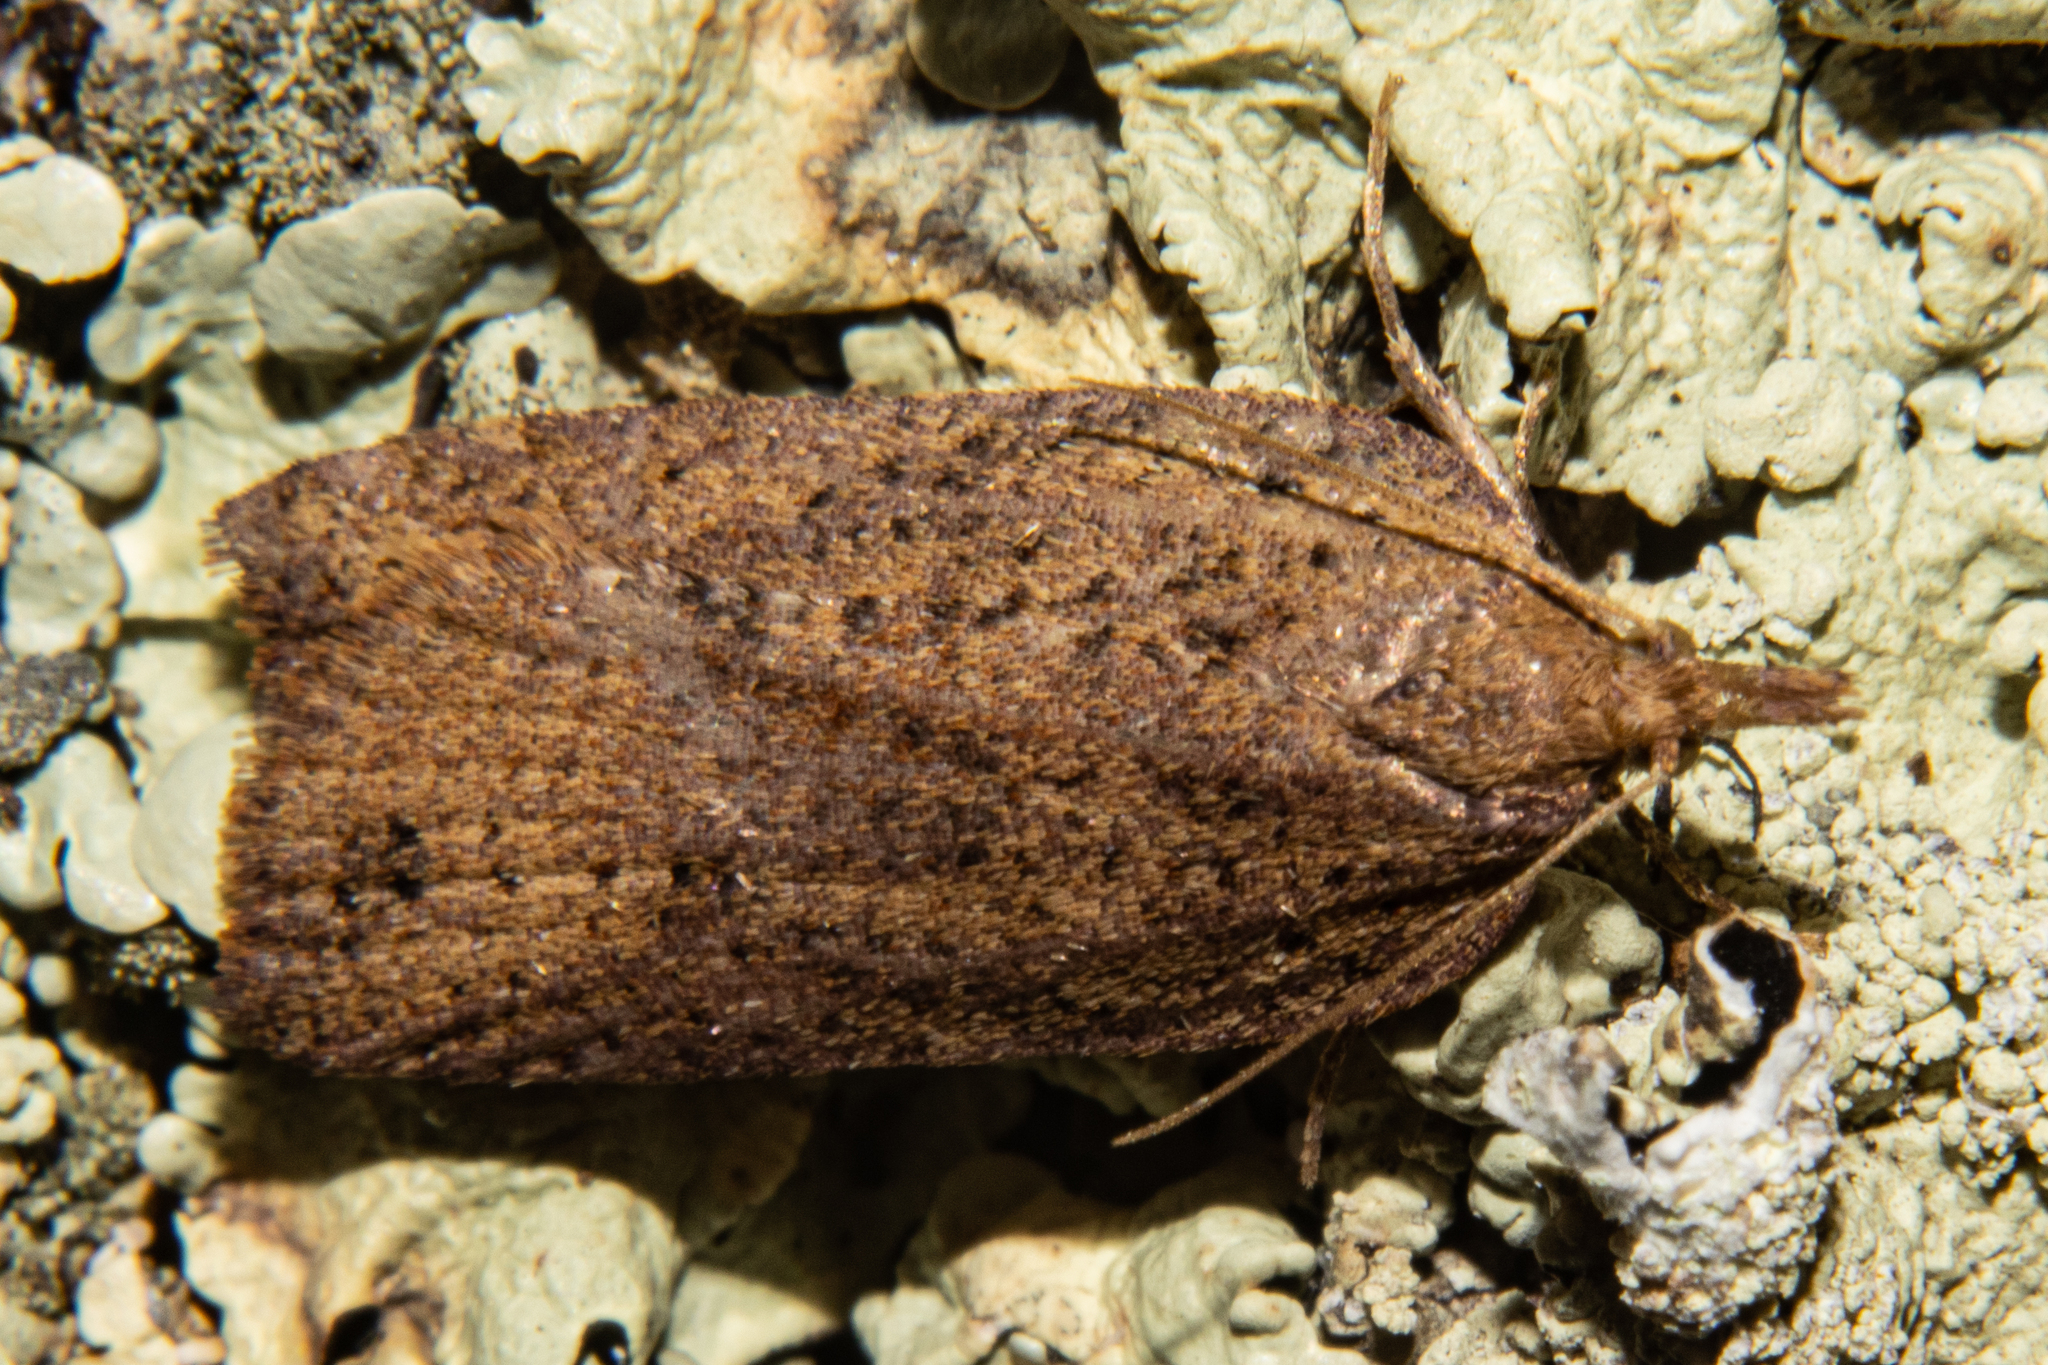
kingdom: Animalia
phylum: Arthropoda
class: Insecta
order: Lepidoptera
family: Tortricidae
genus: Planotortrix
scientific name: Planotortrix notophaea
